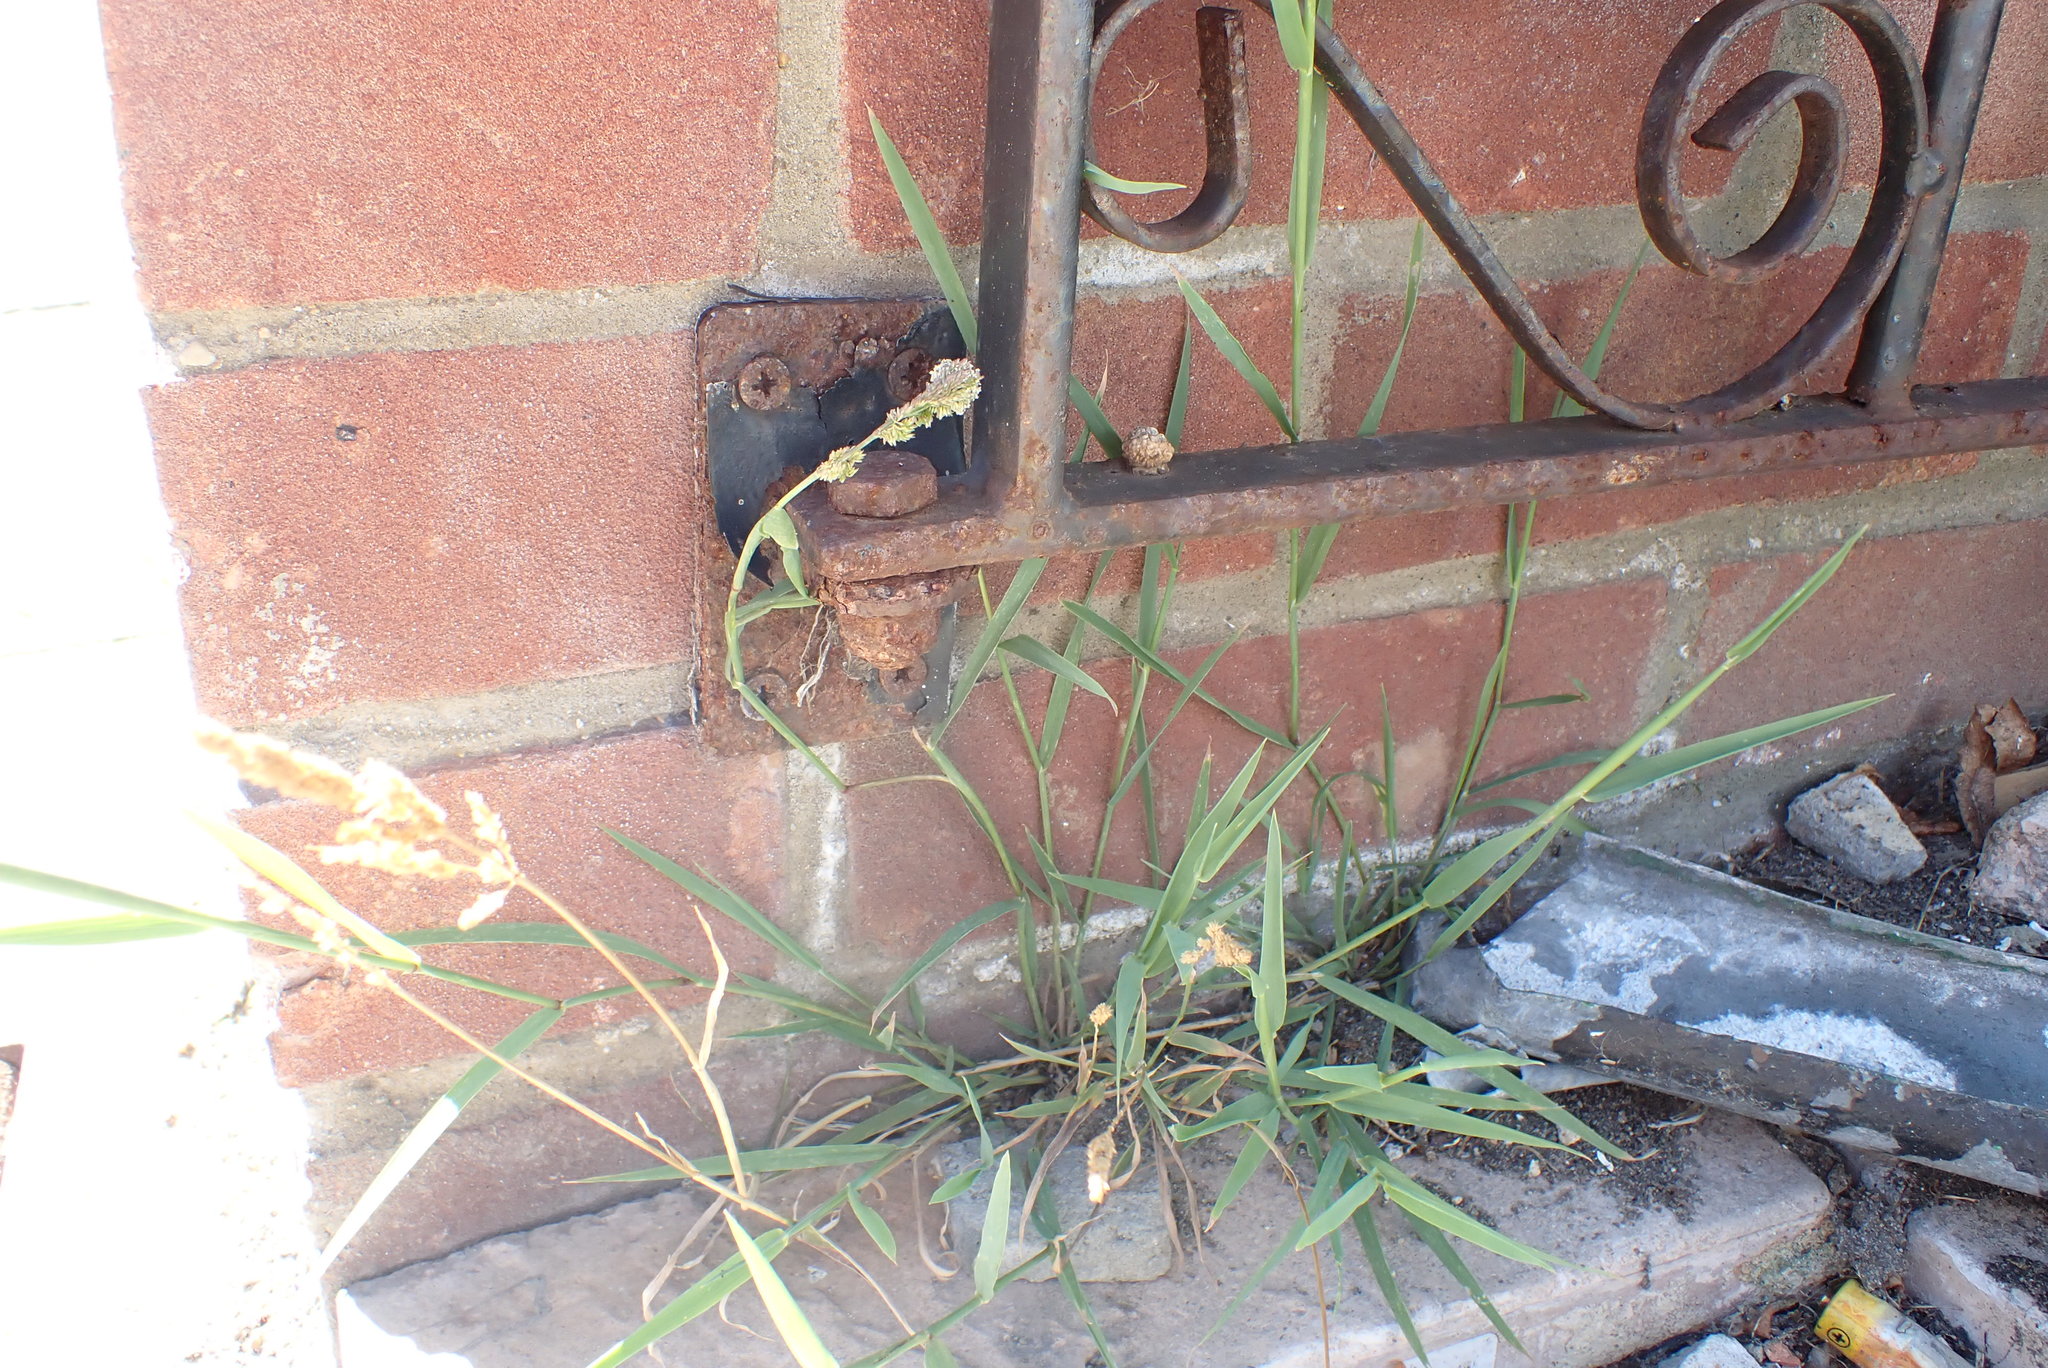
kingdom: Plantae
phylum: Tracheophyta
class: Liliopsida
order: Poales
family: Poaceae
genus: Polypogon
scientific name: Polypogon viridis
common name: Water bent
